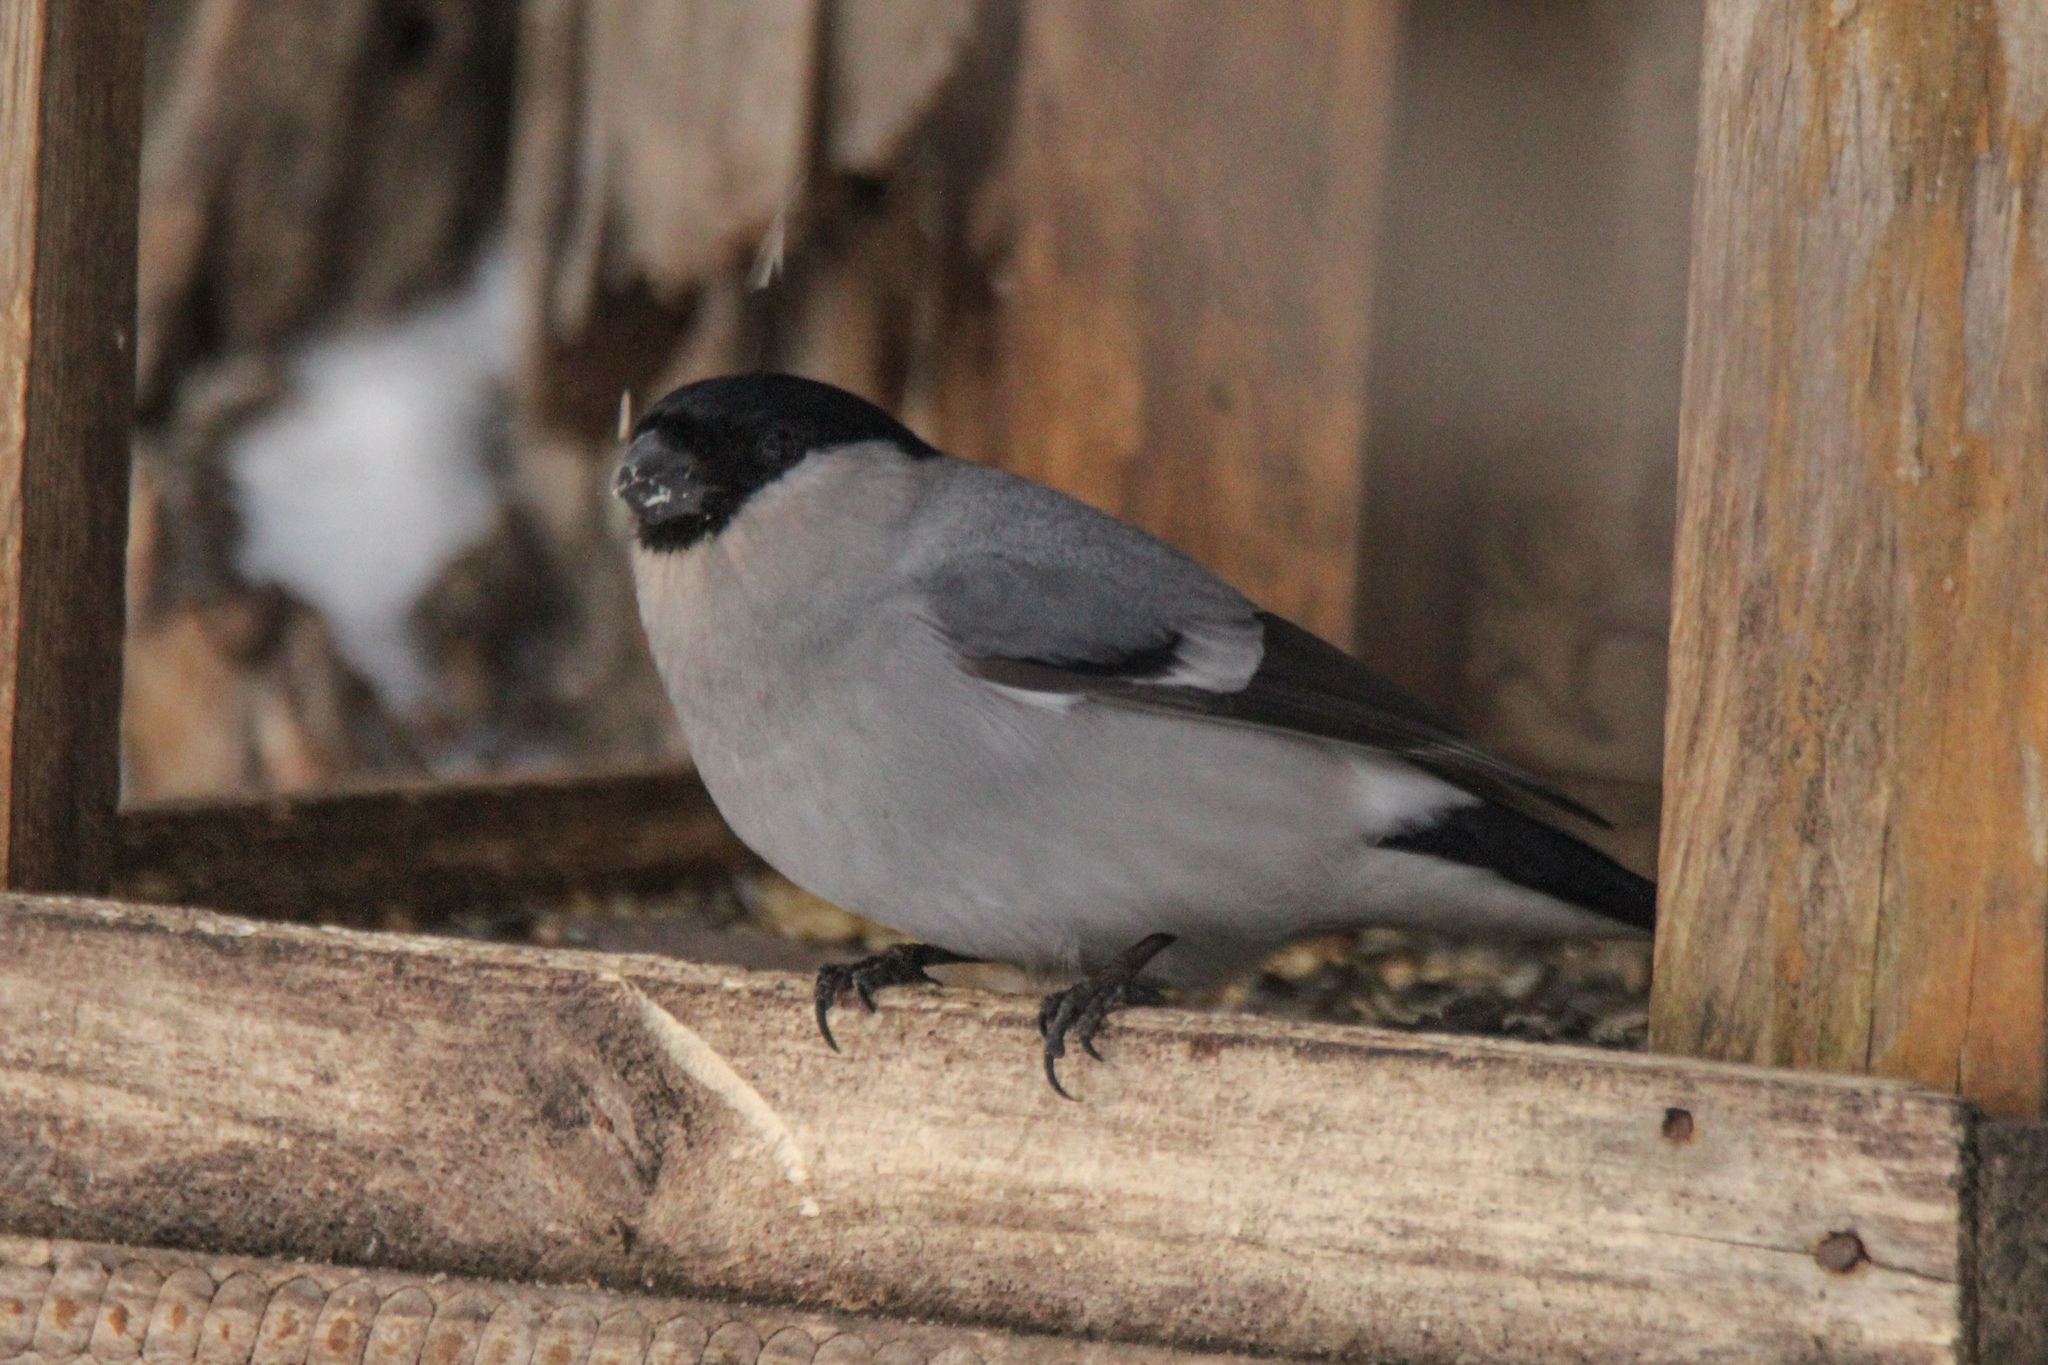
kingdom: Animalia
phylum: Chordata
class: Aves
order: Passeriformes
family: Fringillidae
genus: Pyrrhula
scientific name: Pyrrhula pyrrhula
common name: Eurasian bullfinch
